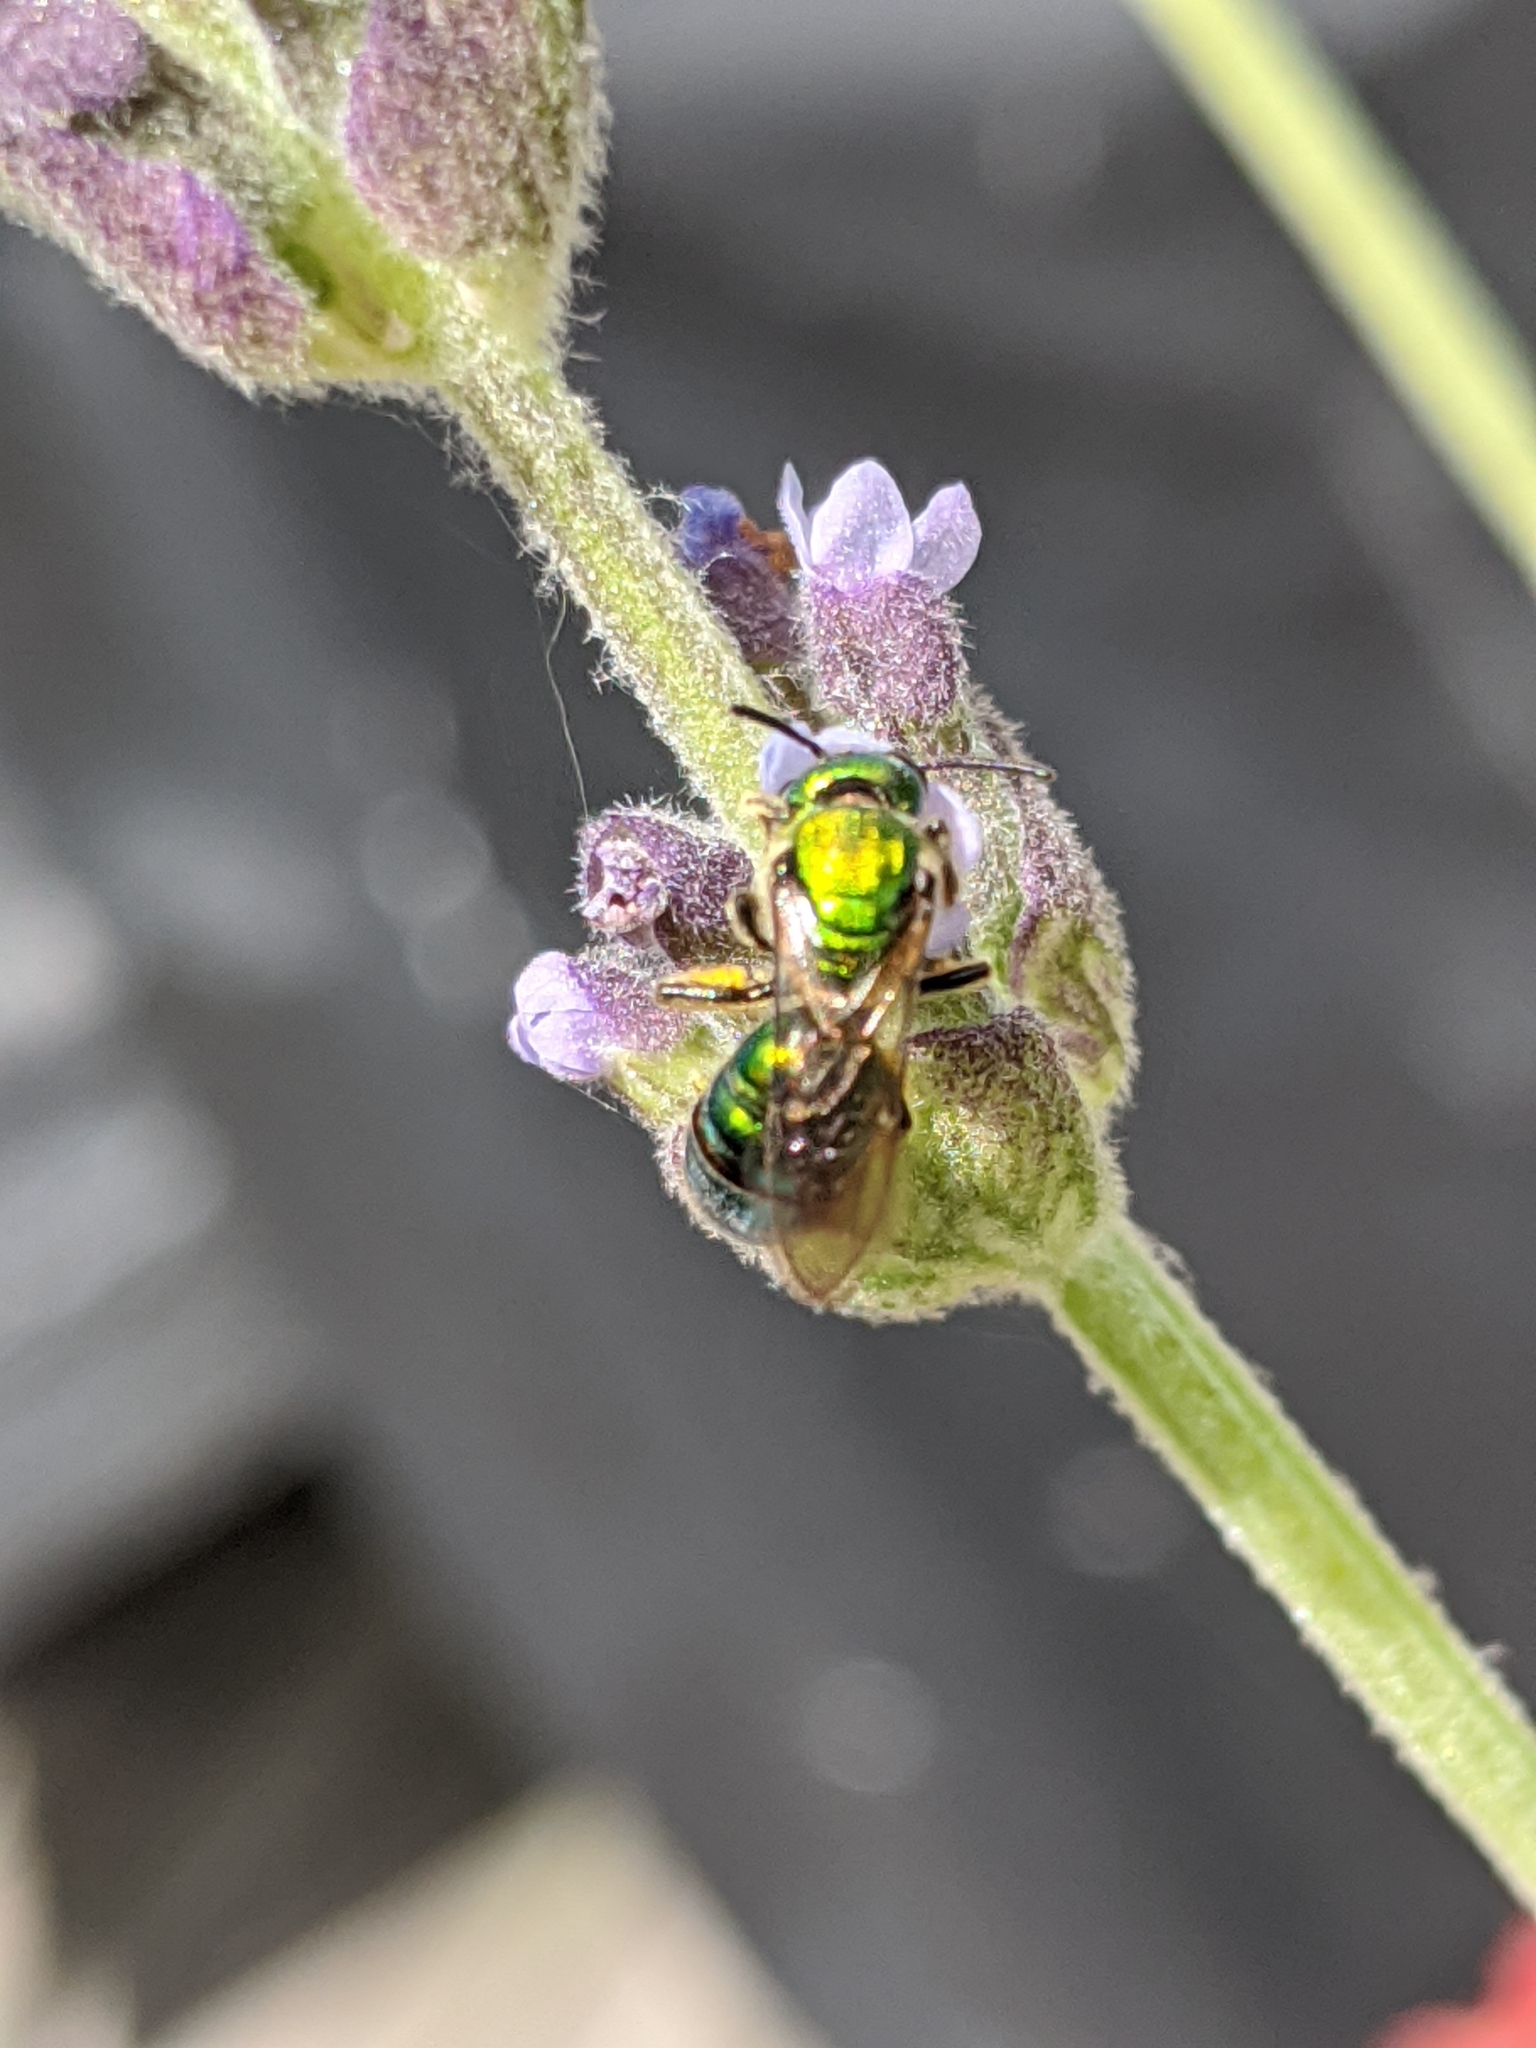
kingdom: Animalia
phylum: Arthropoda
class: Insecta
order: Hymenoptera
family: Halictidae
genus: Augochlora
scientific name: Augochlora pura
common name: Pure green sweat bee
